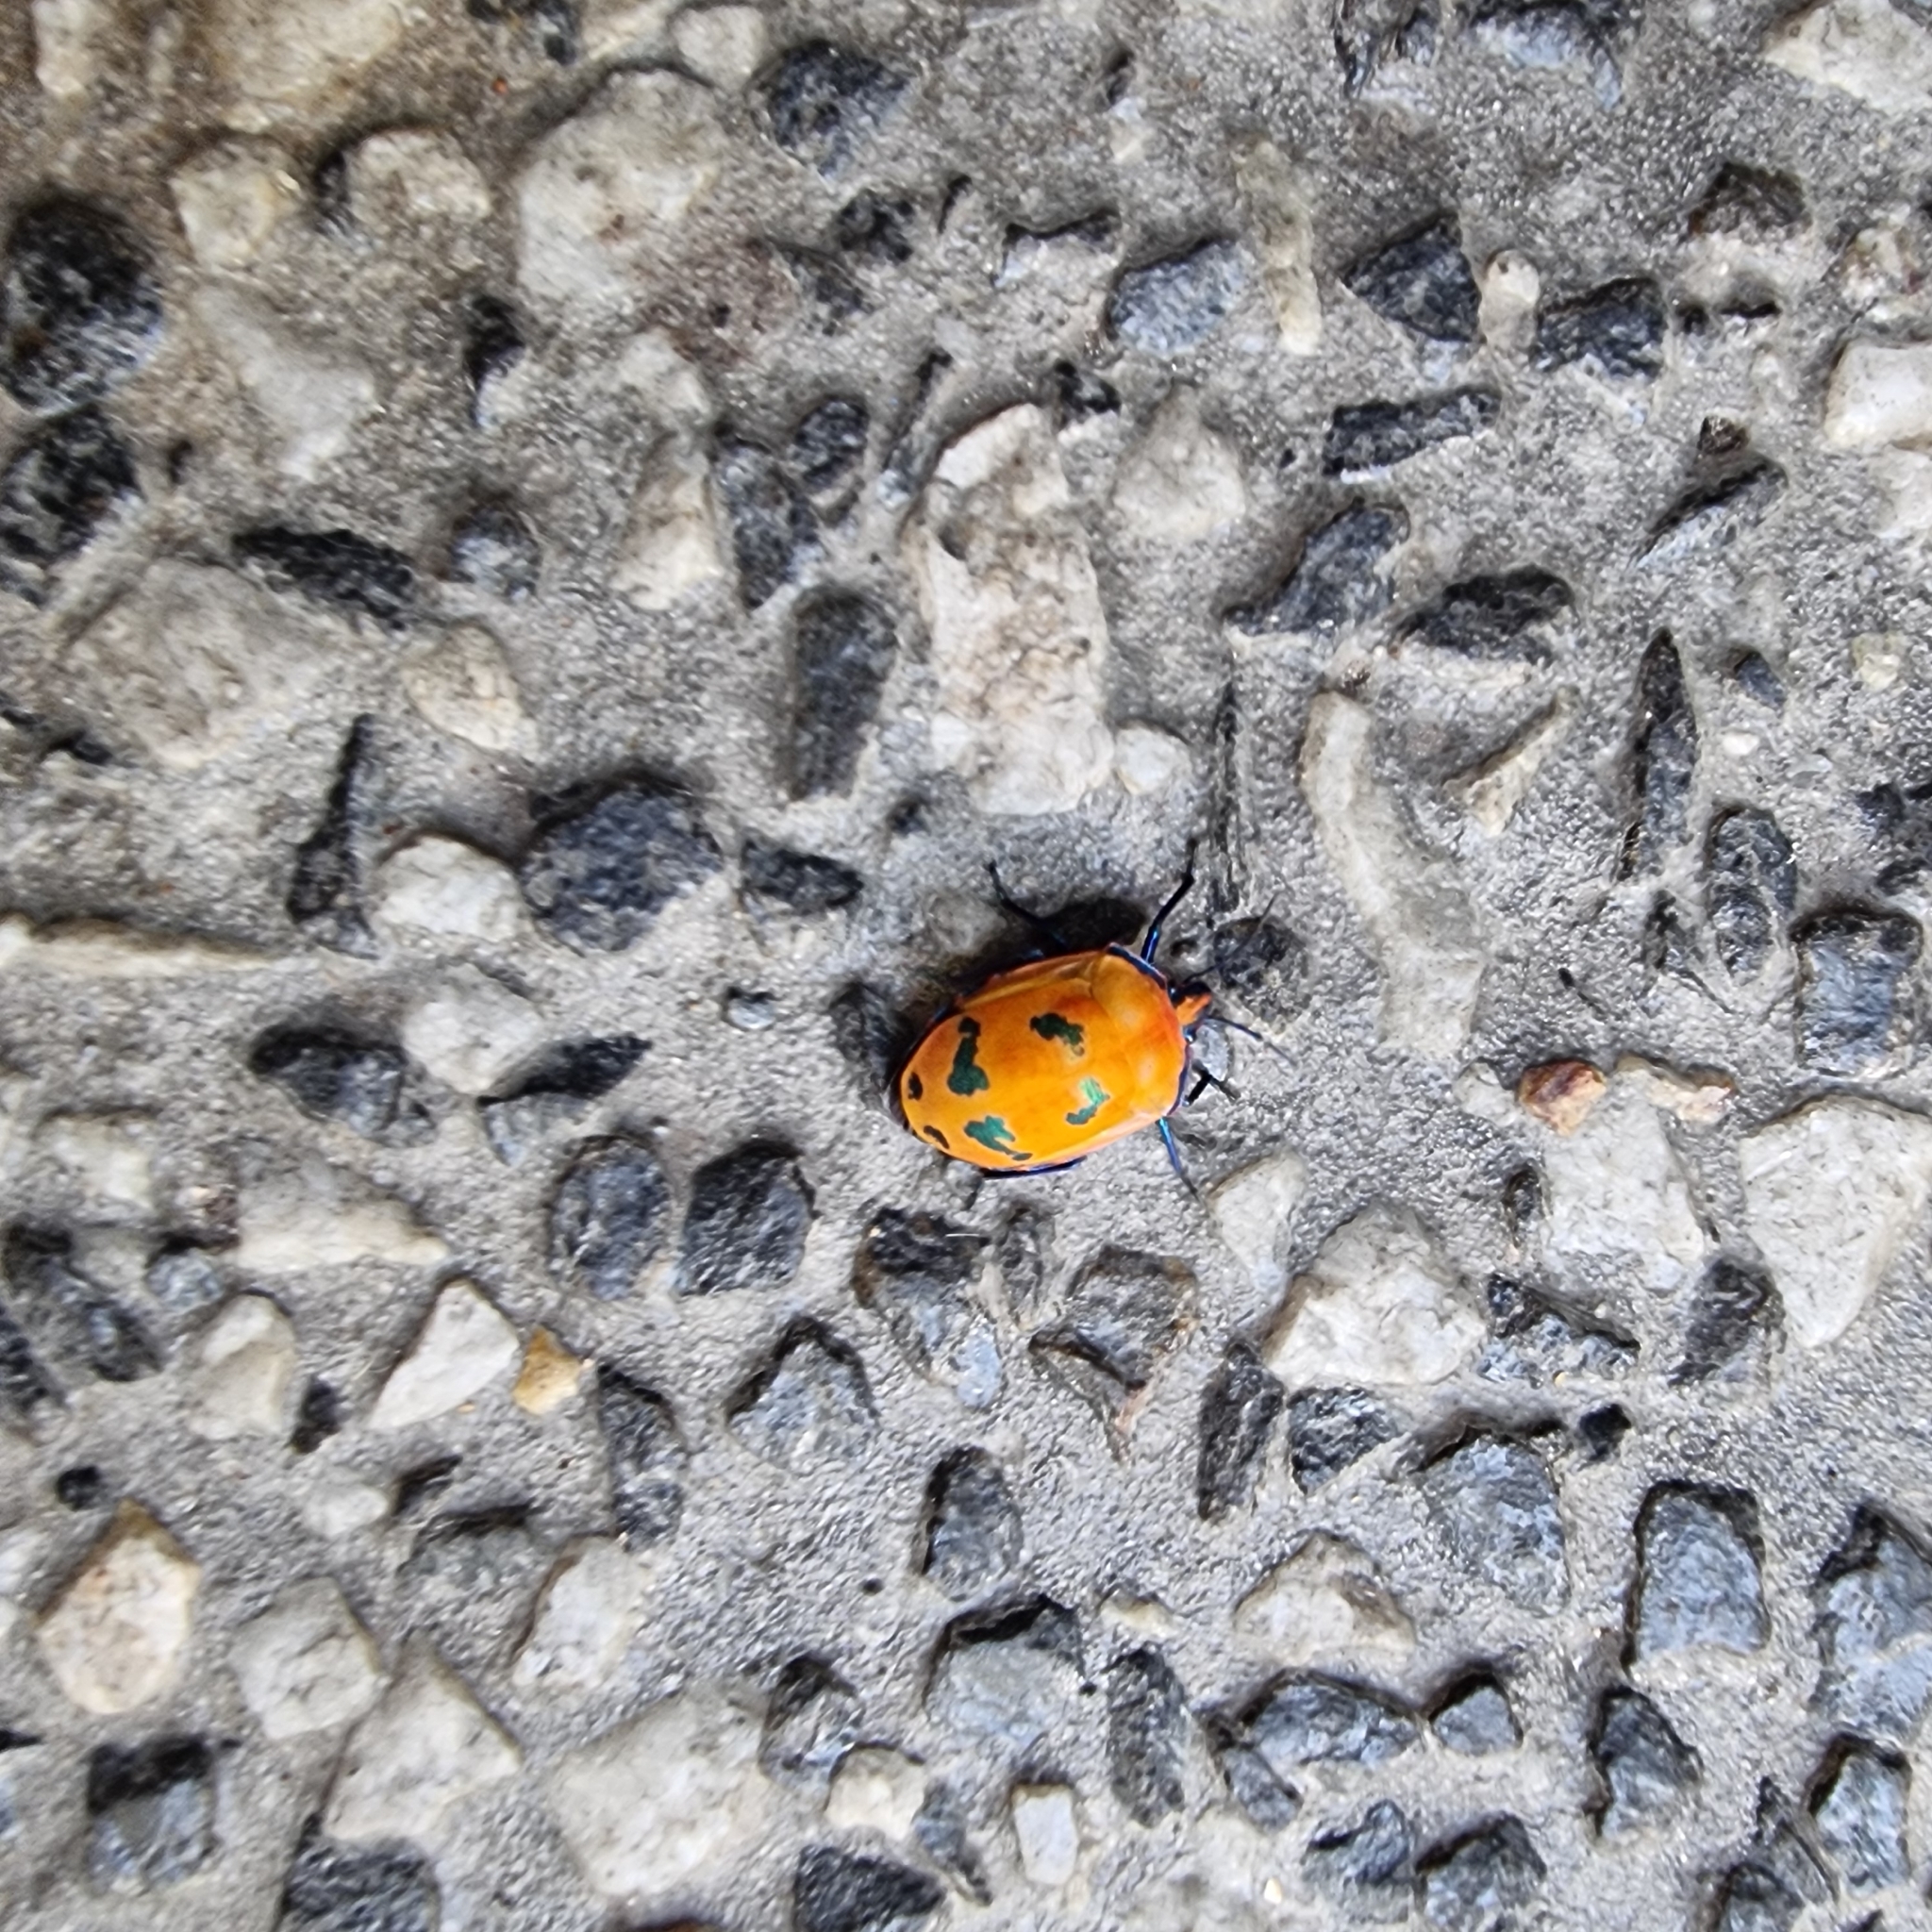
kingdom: Animalia
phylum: Arthropoda
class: Insecta
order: Hemiptera
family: Scutelleridae
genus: Tectocoris
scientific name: Tectocoris diophthalmus
